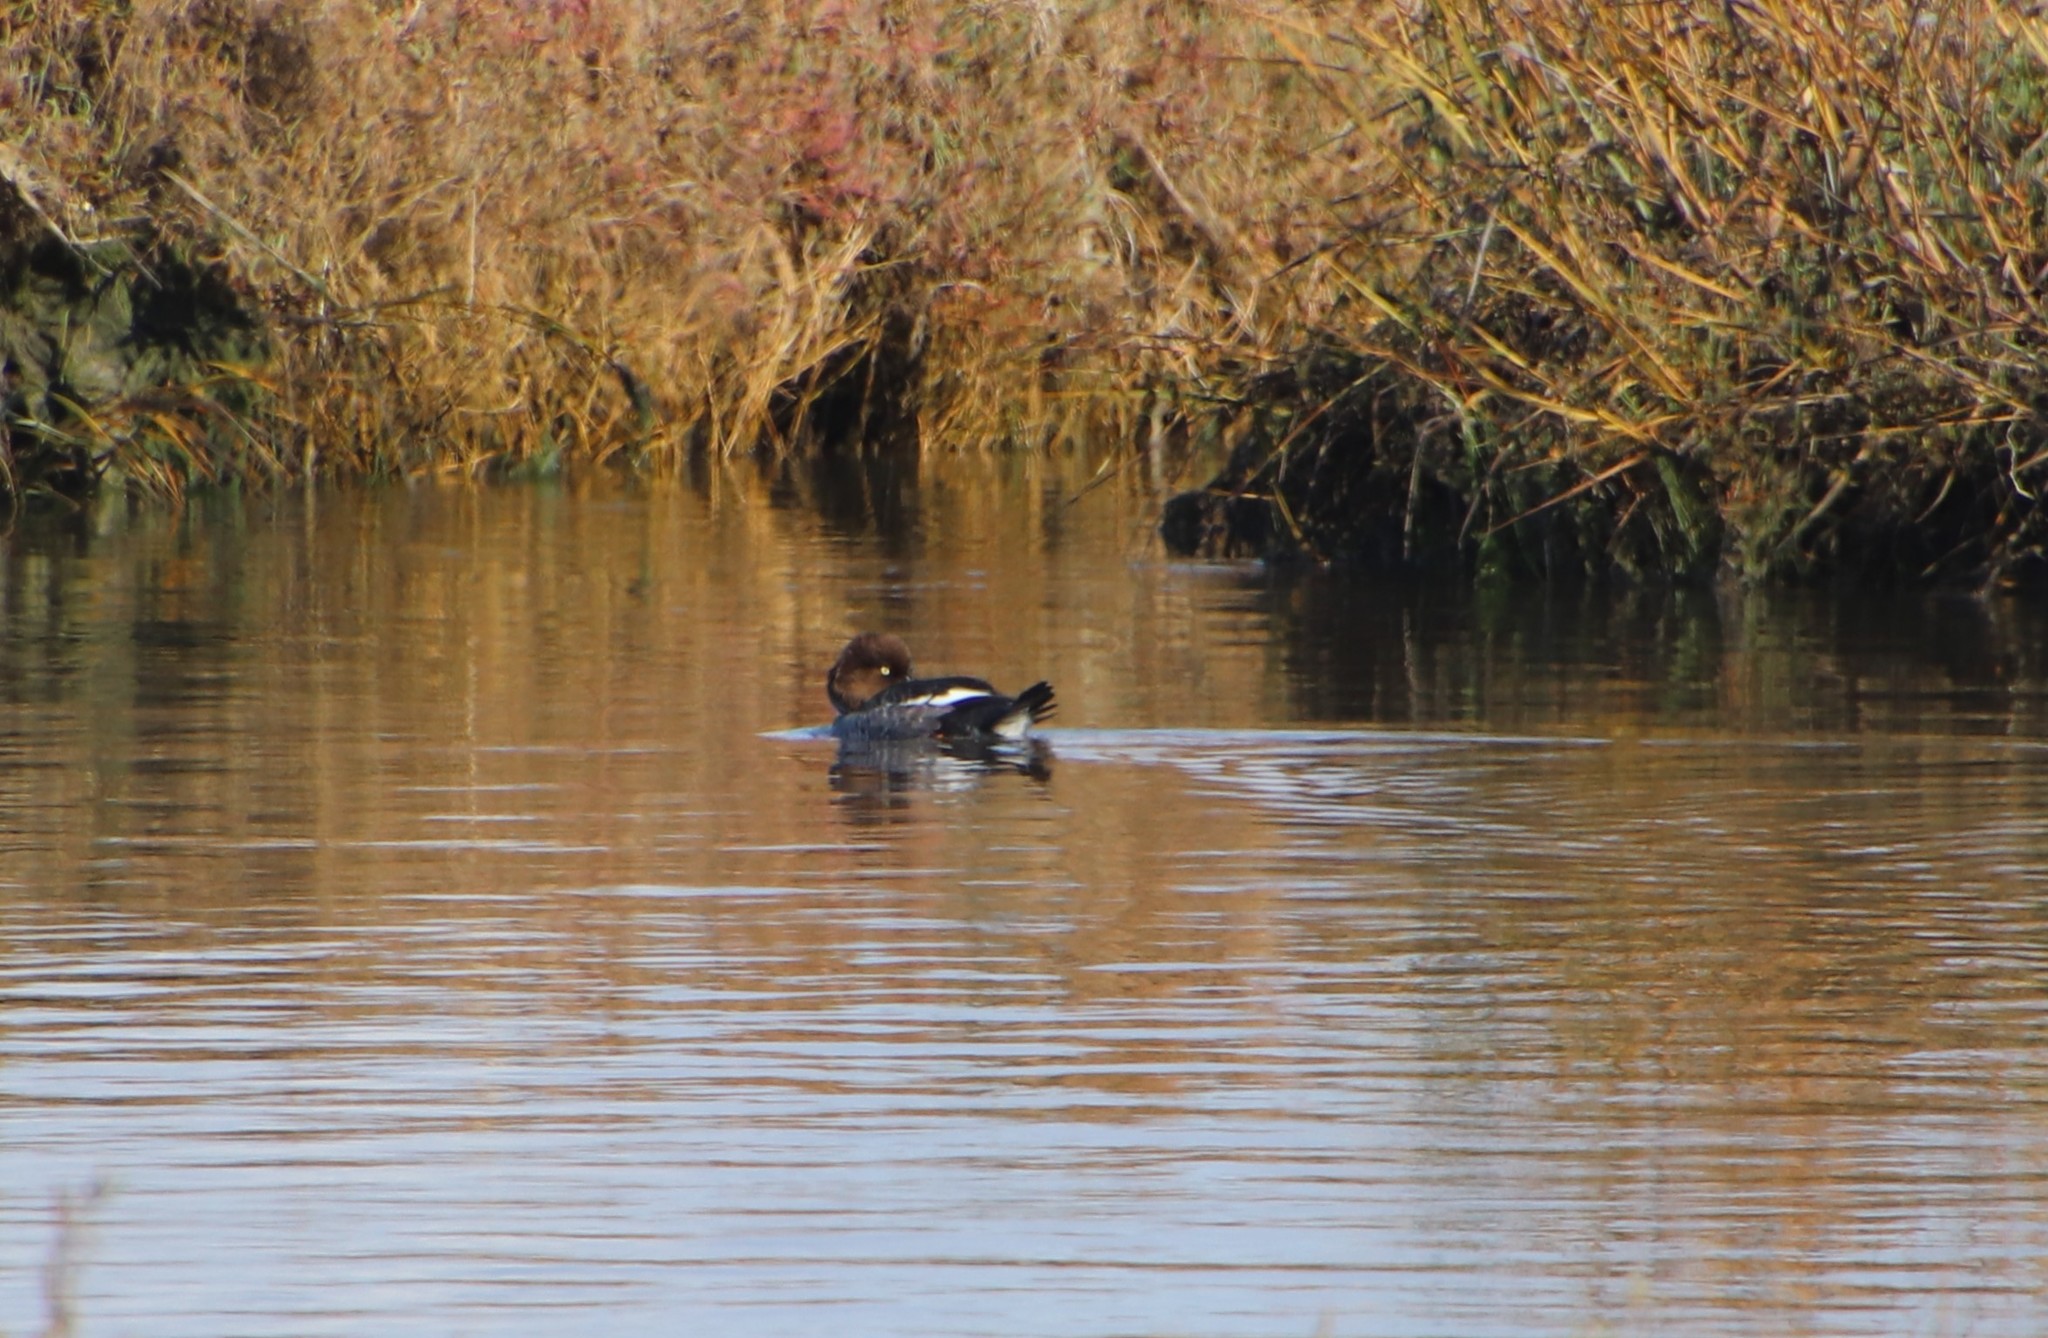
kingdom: Animalia
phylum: Chordata
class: Aves
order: Anseriformes
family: Anatidae
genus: Bucephala
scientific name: Bucephala clangula
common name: Common goldeneye
